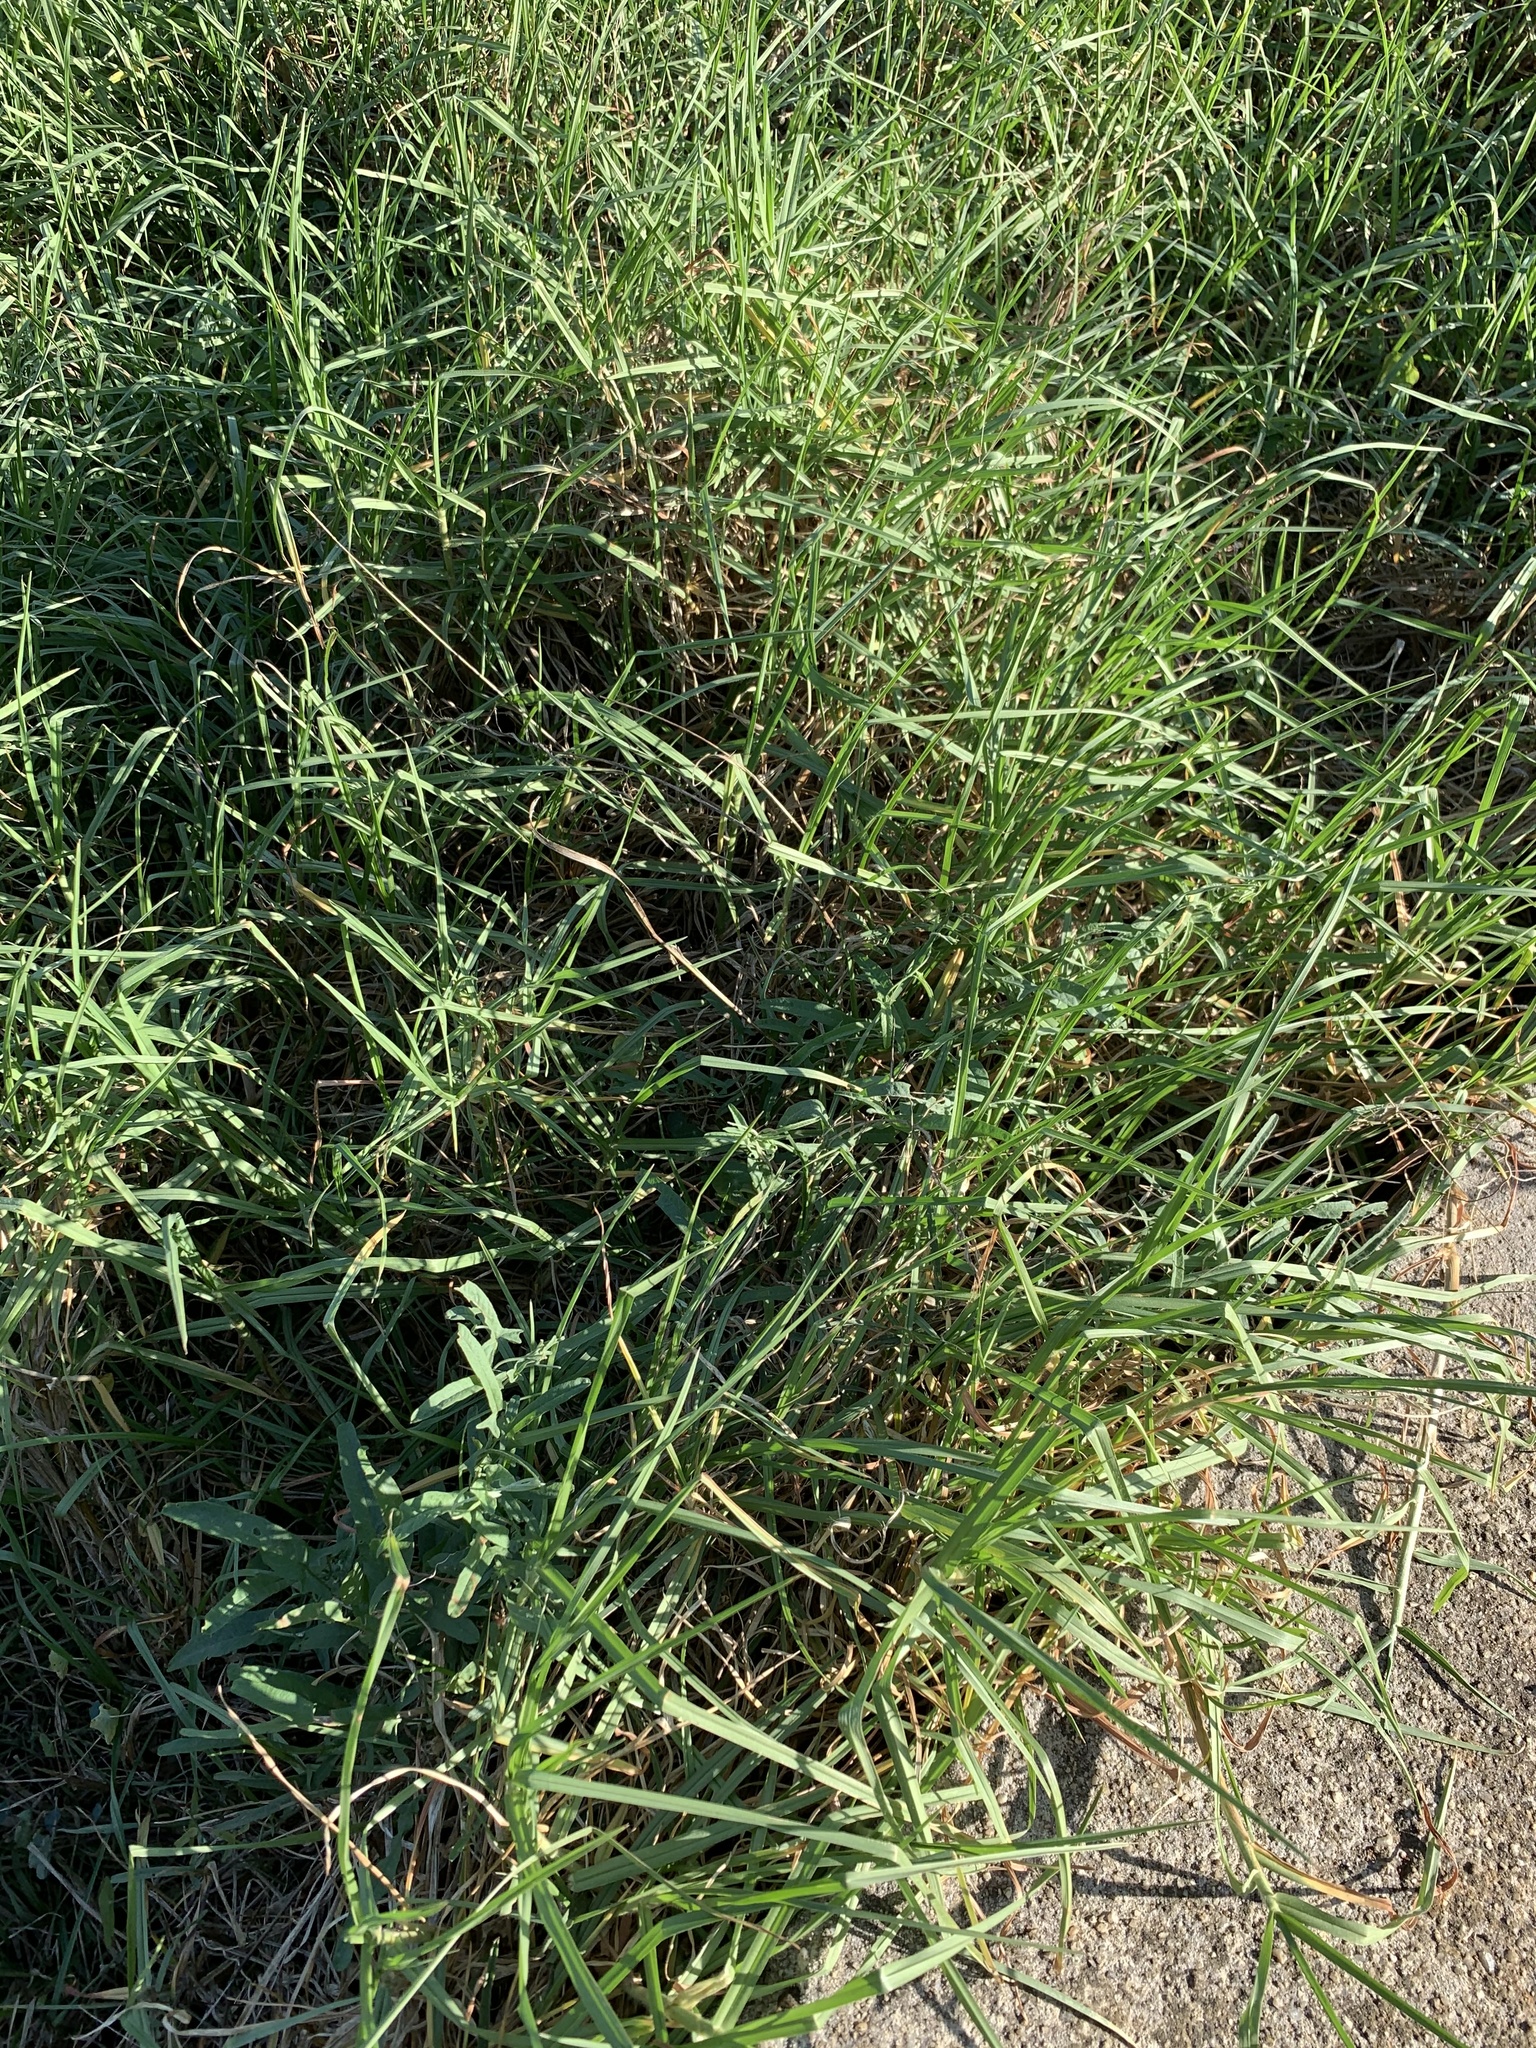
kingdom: Plantae
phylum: Tracheophyta
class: Liliopsida
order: Poales
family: Poaceae
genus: Cenchrus
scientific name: Cenchrus clandestinus
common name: Kikuyugrass
